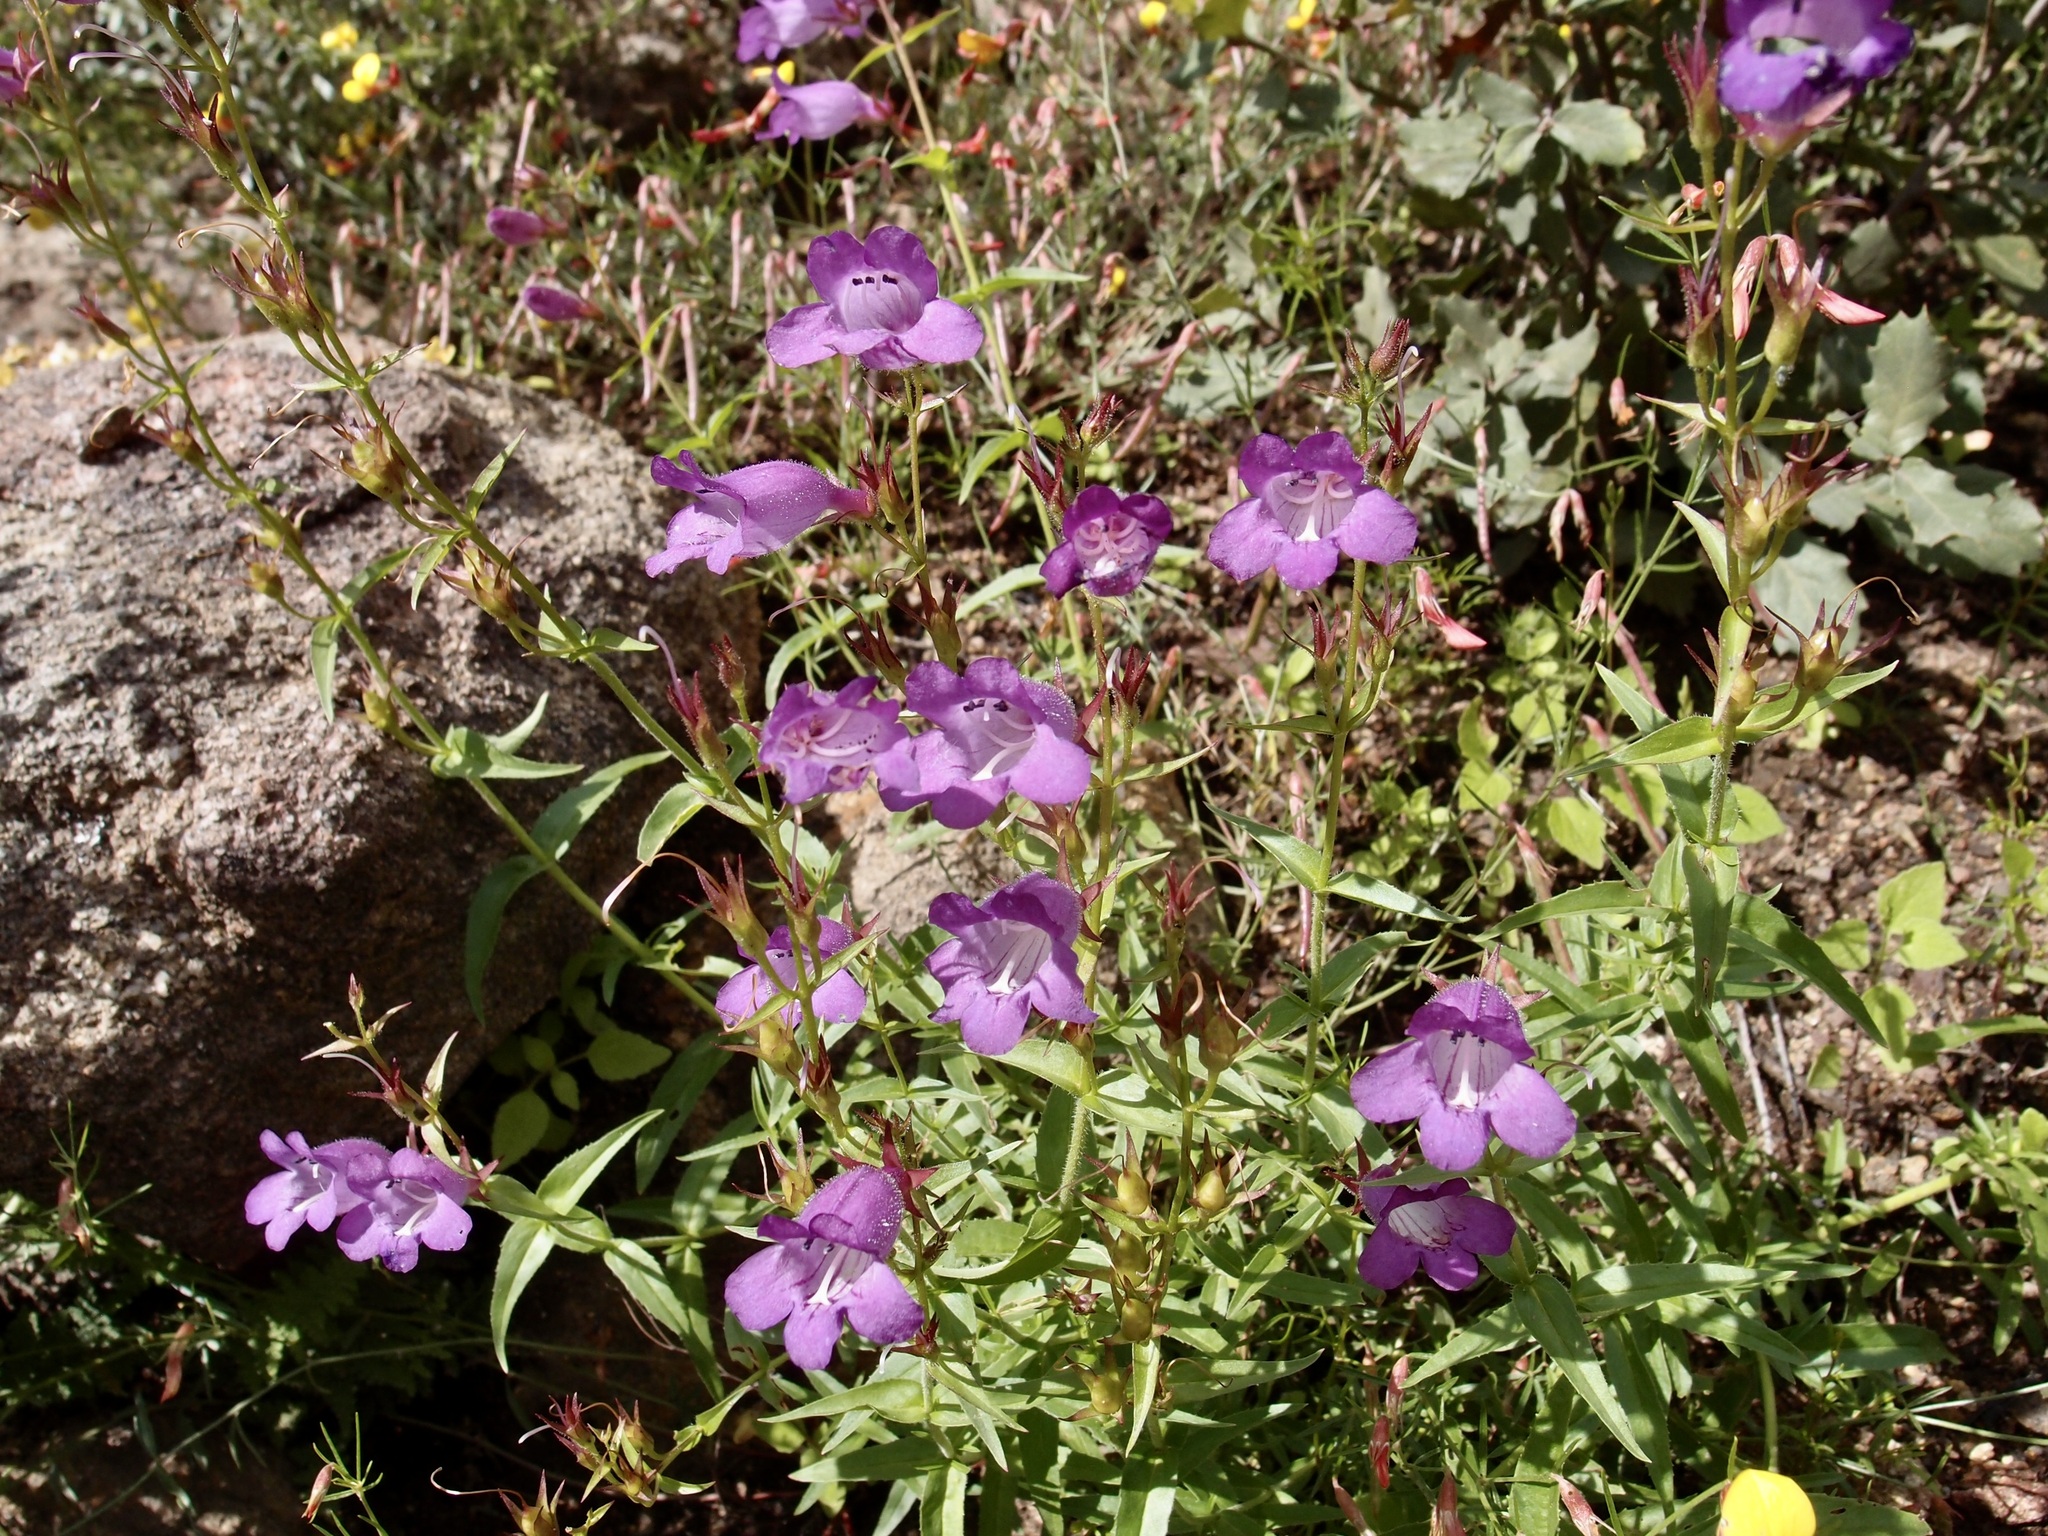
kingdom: Plantae
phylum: Tracheophyta
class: Magnoliopsida
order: Lamiales
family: Plantaginaceae
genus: Penstemon
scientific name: Penstemon campanulatus
